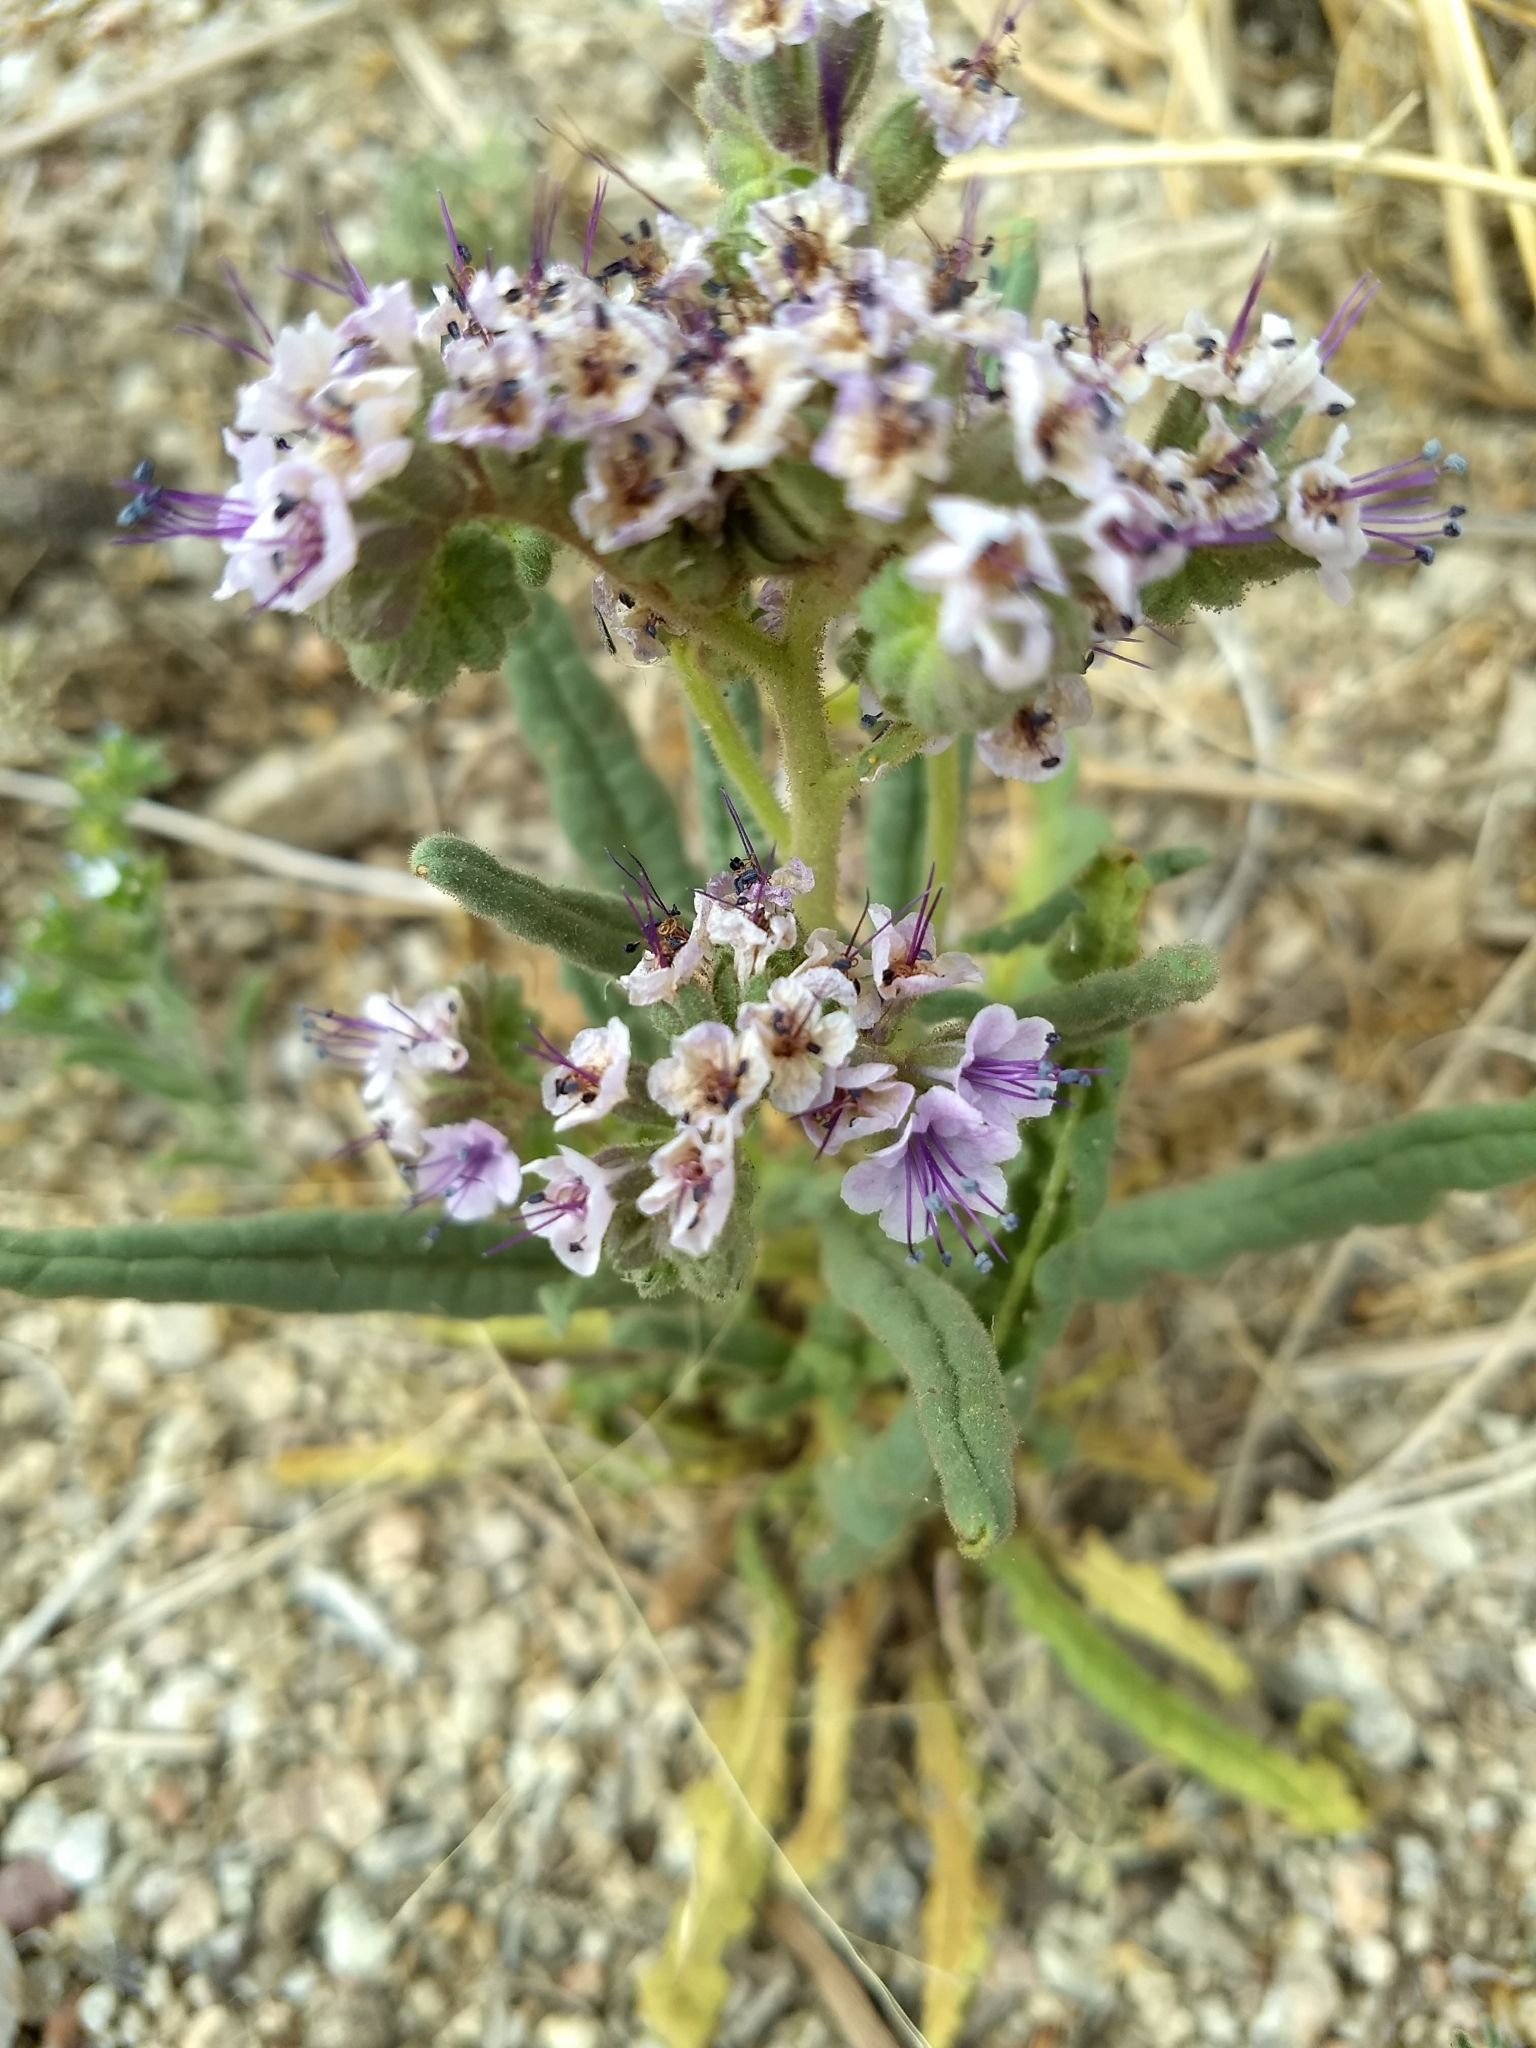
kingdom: Plantae
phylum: Tracheophyta
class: Magnoliopsida
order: Boraginales
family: Hydrophyllaceae
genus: Phacelia
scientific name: Phacelia integrifolia
